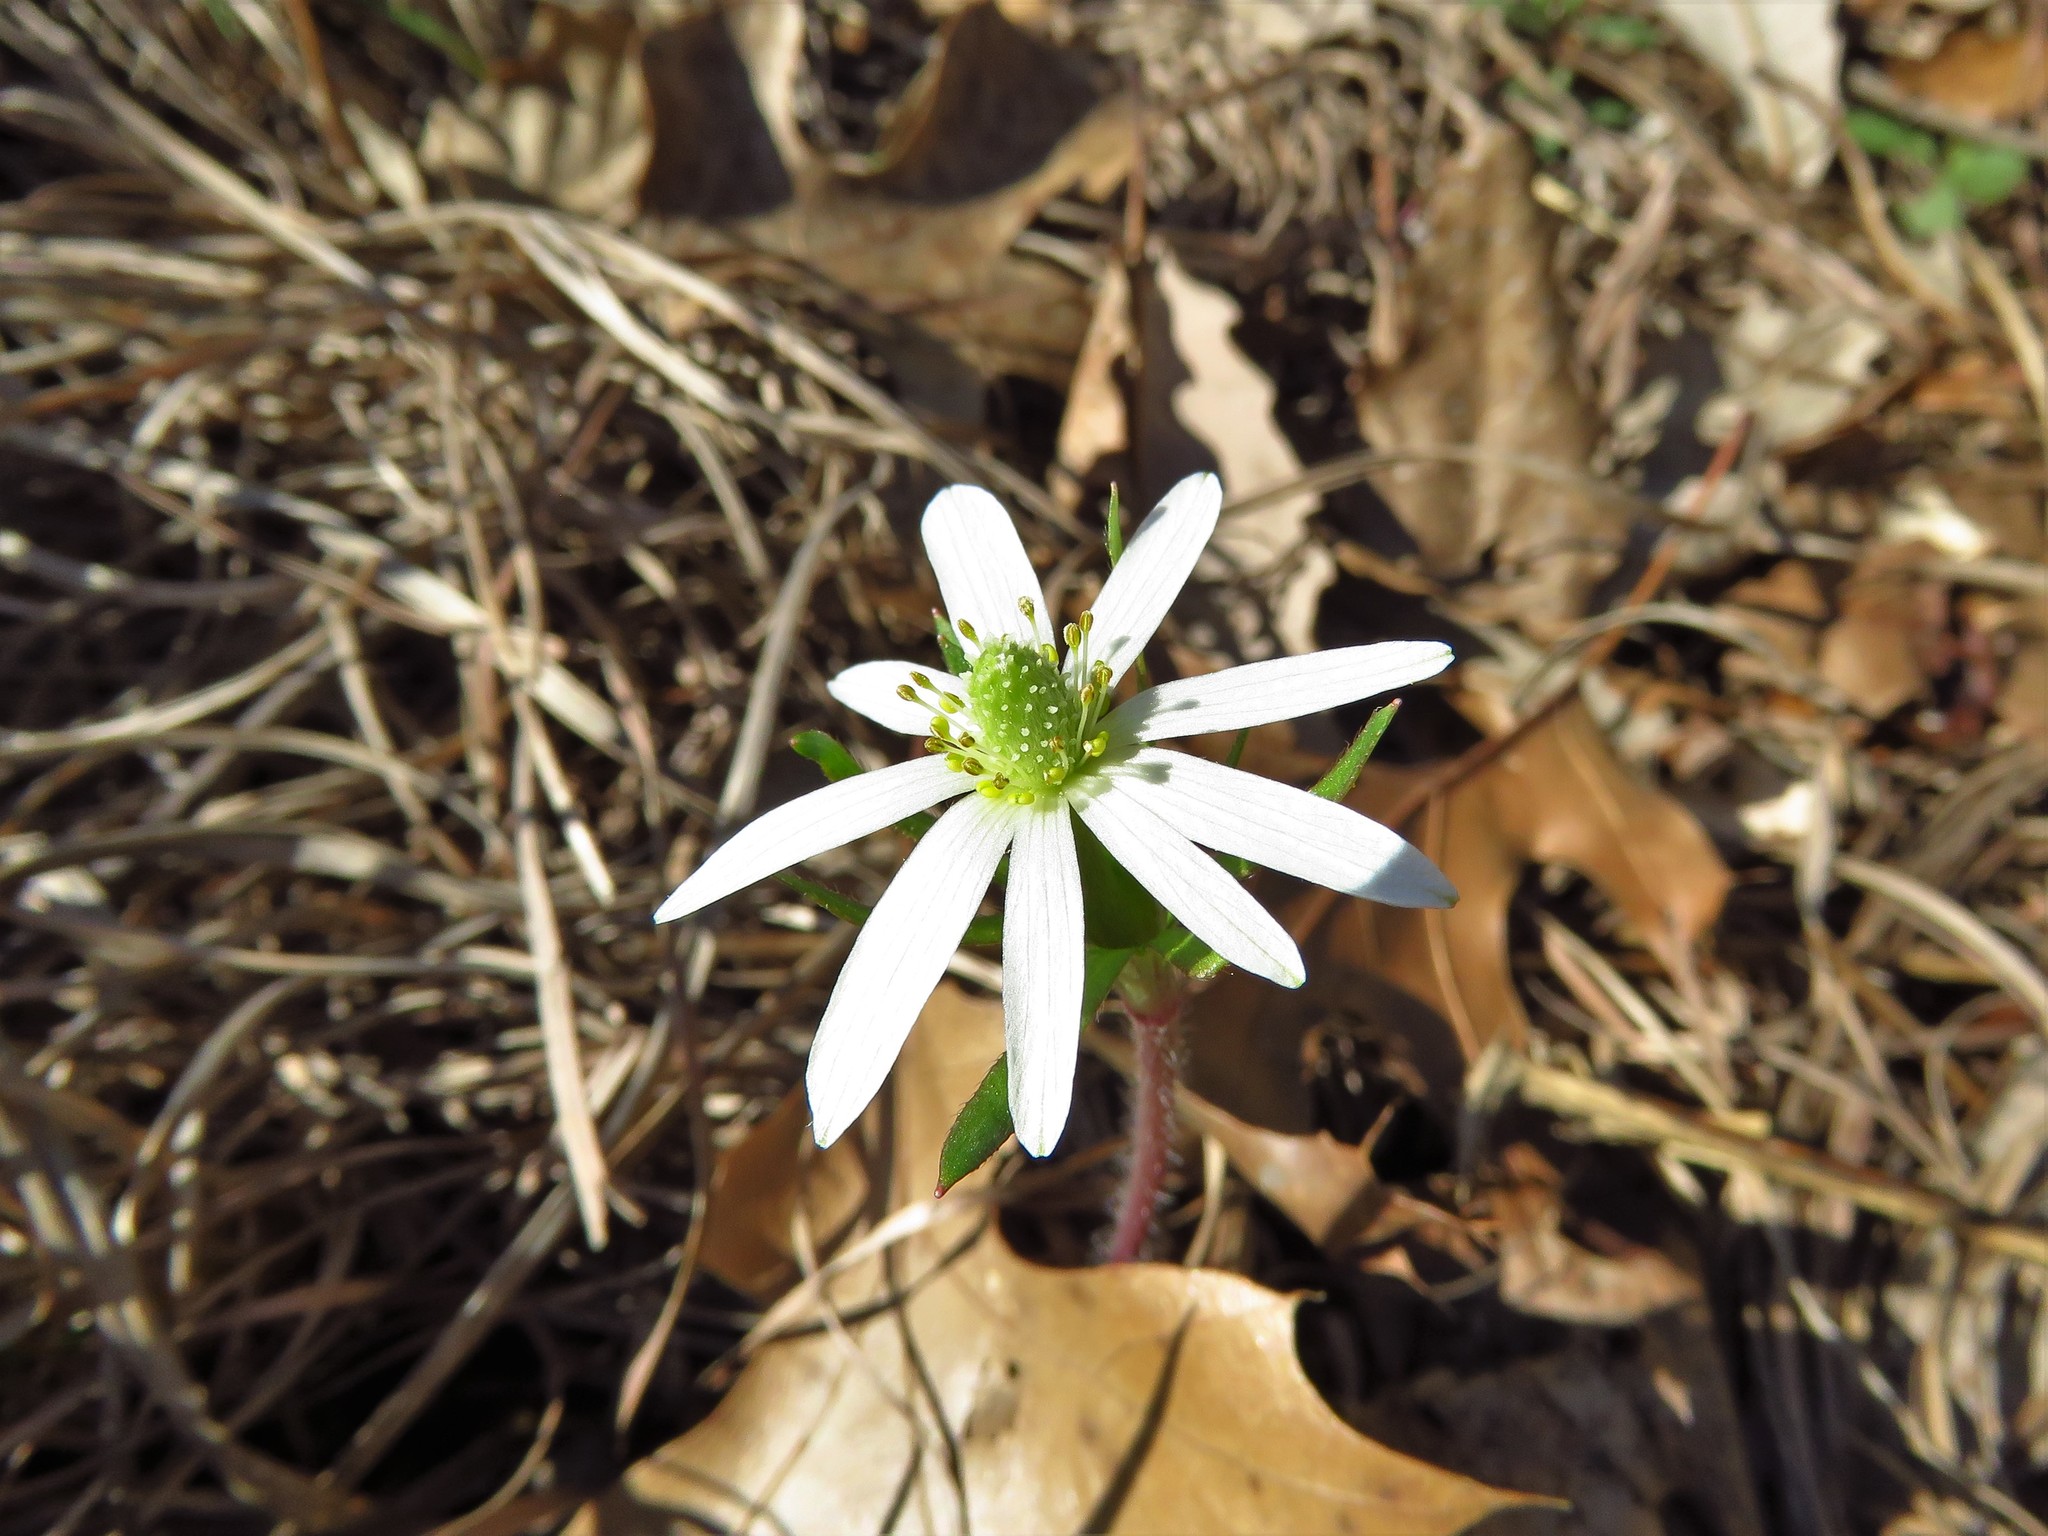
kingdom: Plantae
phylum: Tracheophyta
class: Magnoliopsida
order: Ranunculales
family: Ranunculaceae
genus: Anemone
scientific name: Anemone berlandieri
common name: Ten-petal anemone
